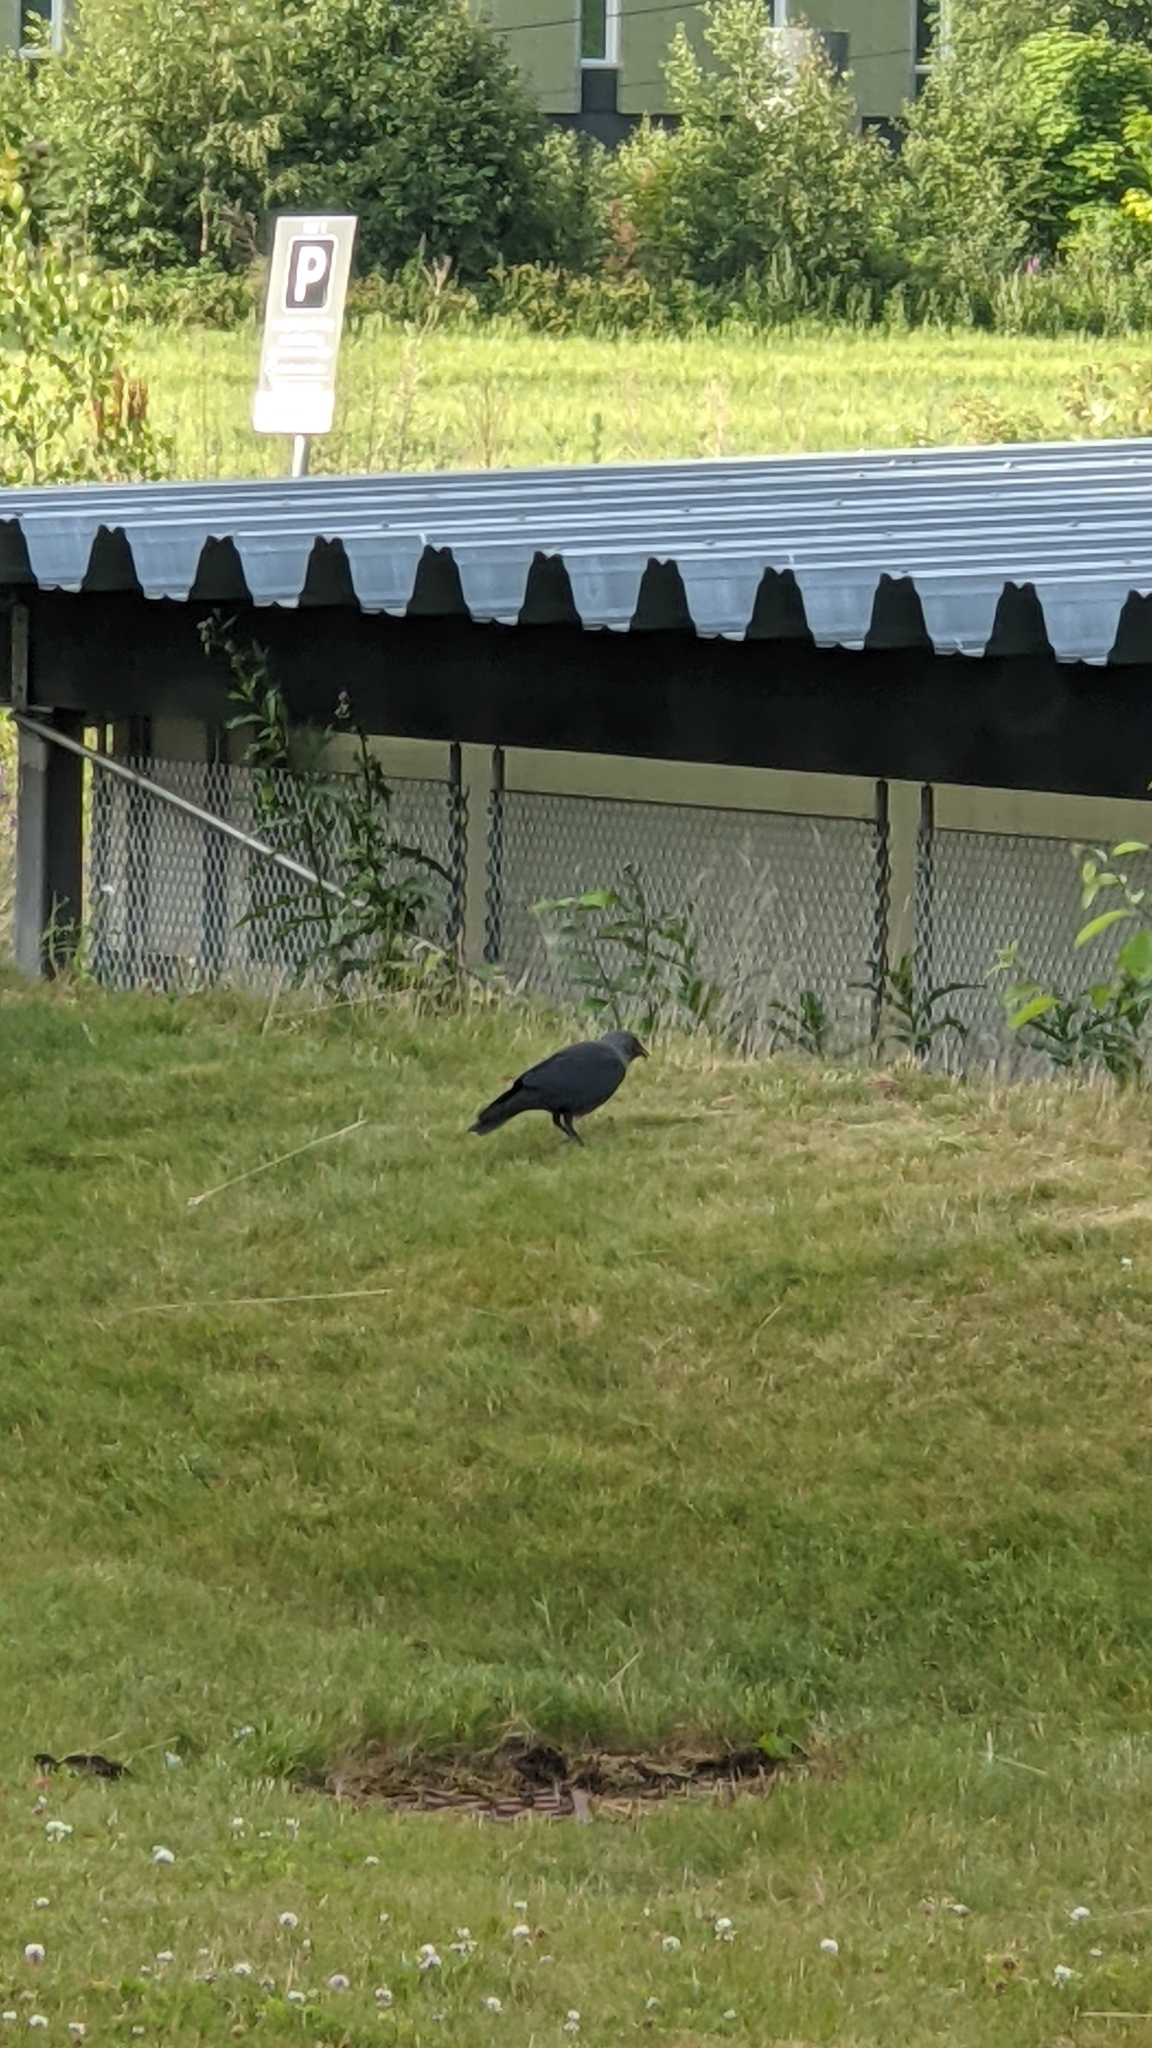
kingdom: Animalia
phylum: Chordata
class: Aves
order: Passeriformes
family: Corvidae
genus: Coloeus
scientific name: Coloeus monedula
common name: Western jackdaw
